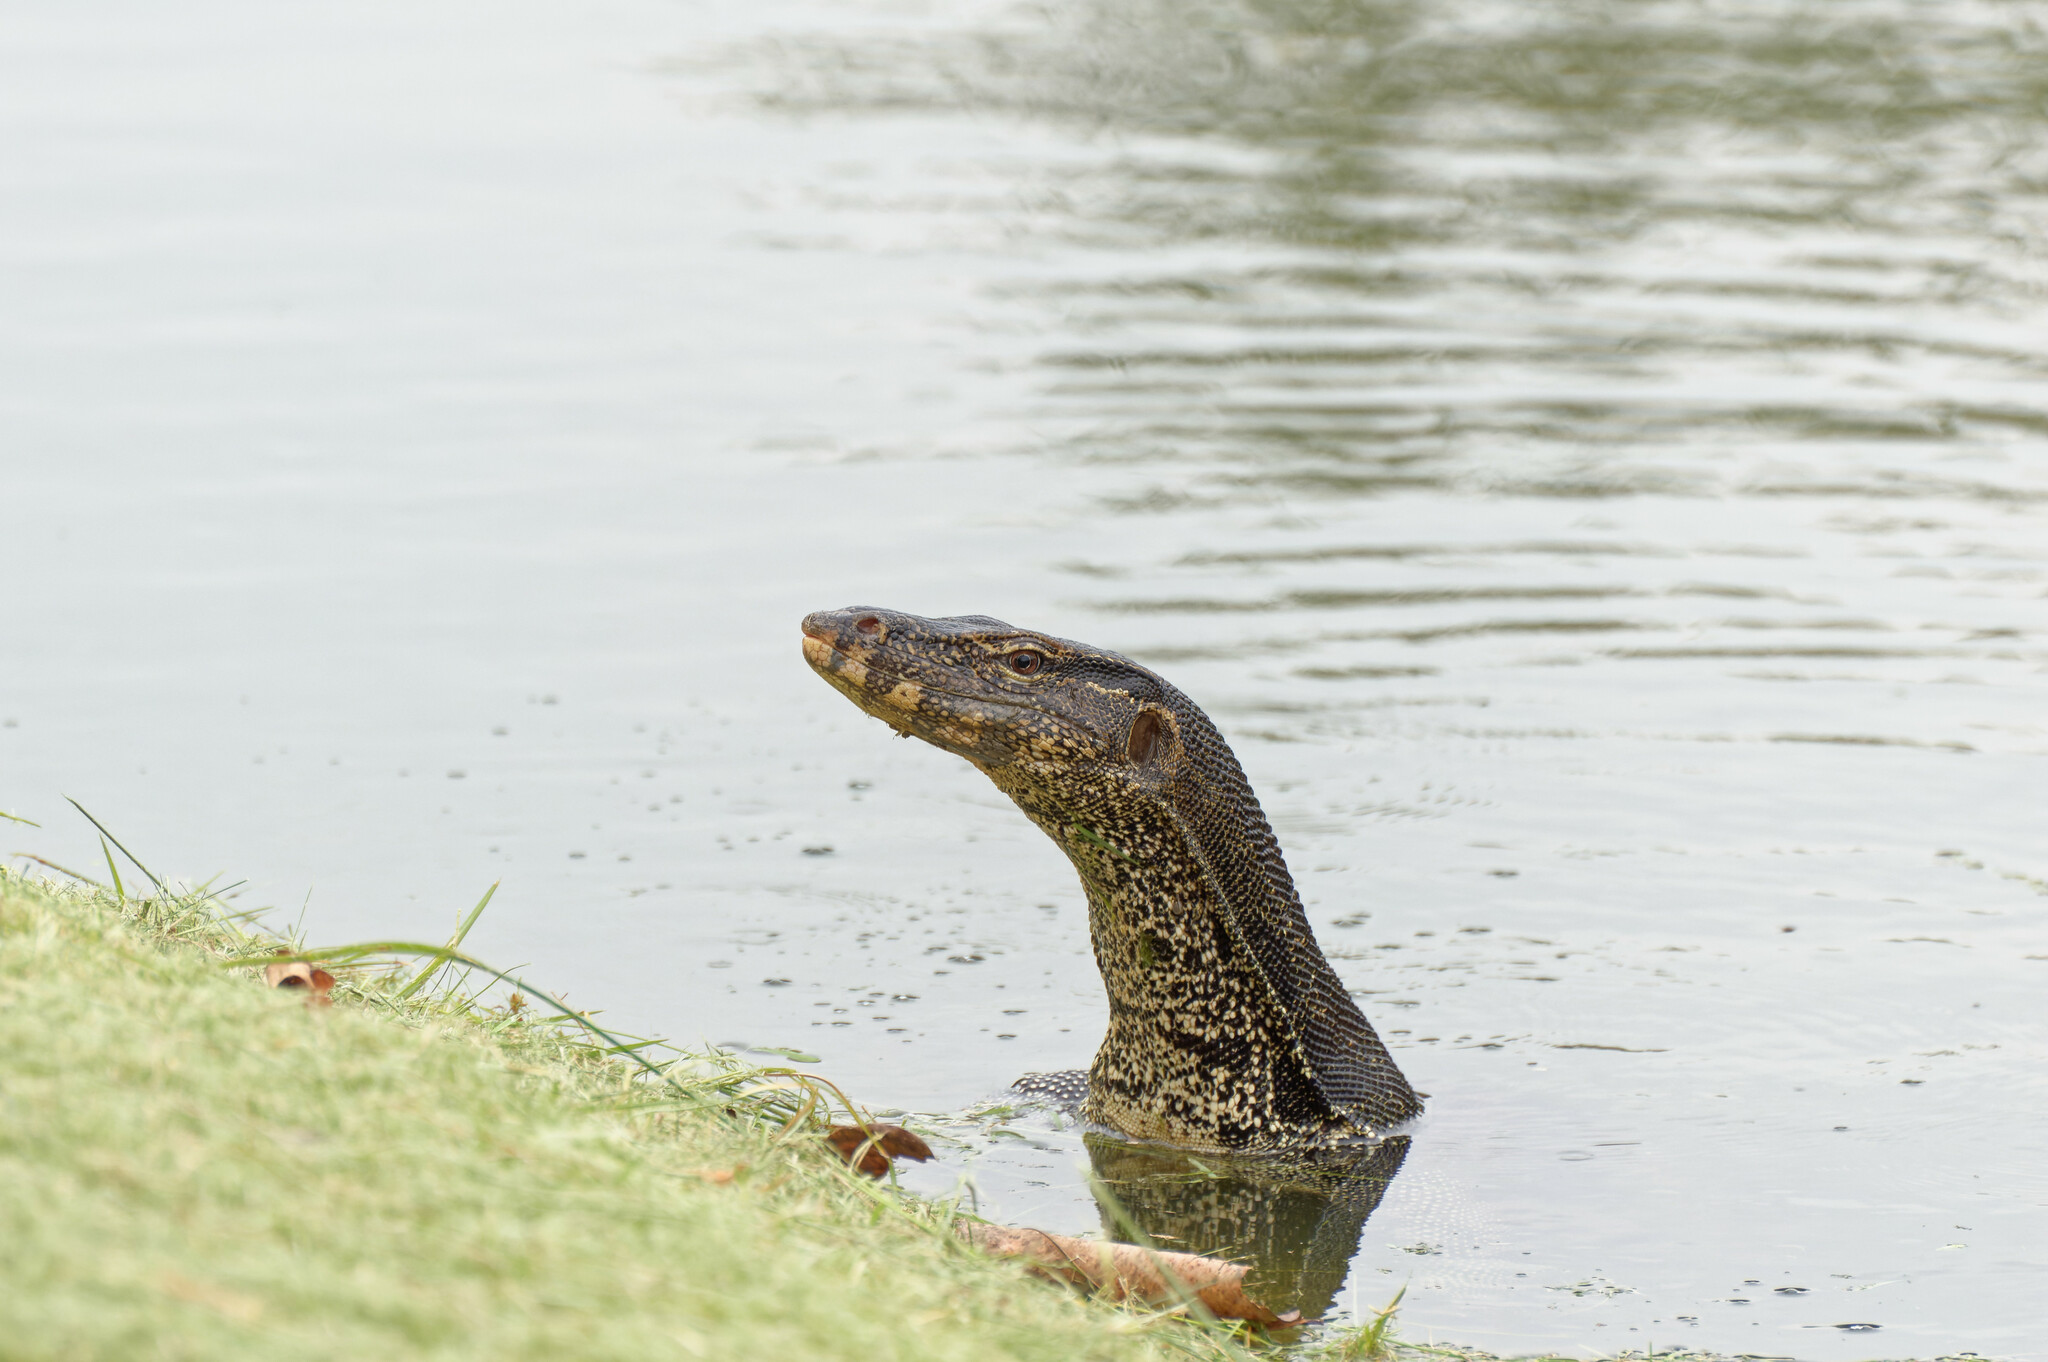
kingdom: Animalia
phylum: Chordata
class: Squamata
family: Varanidae
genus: Varanus
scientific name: Varanus salvator
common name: Common water monitor
